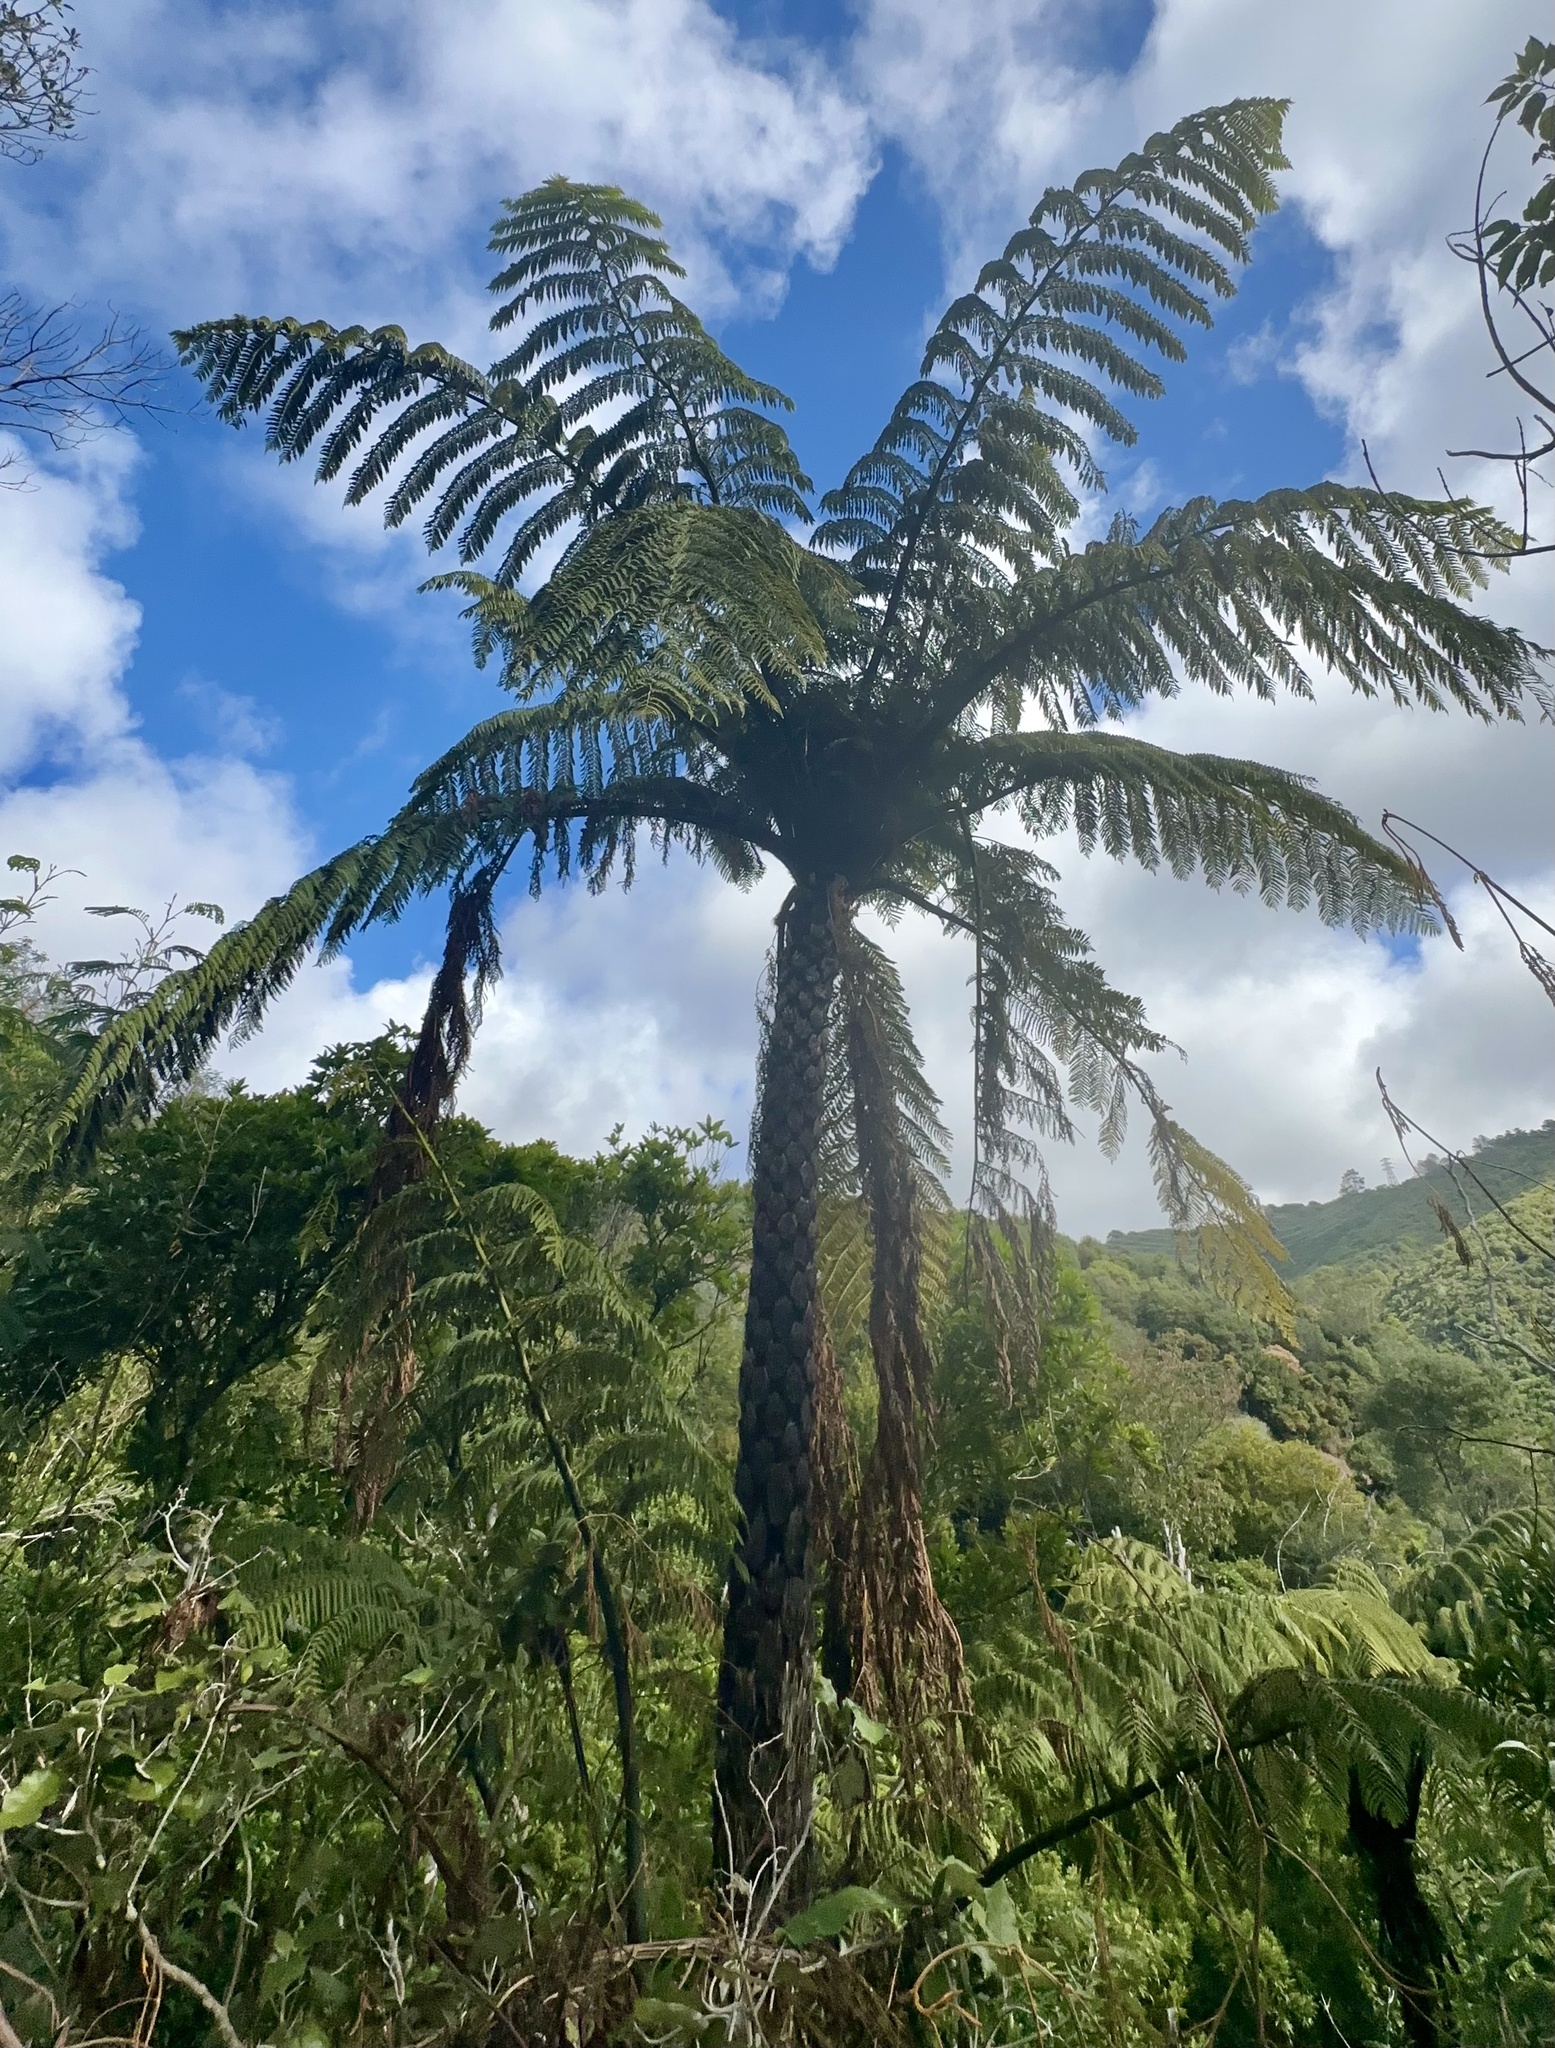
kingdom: Plantae
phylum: Tracheophyta
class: Polypodiopsida
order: Cyatheales
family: Cyatheaceae
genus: Sphaeropteris
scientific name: Sphaeropteris medullaris
